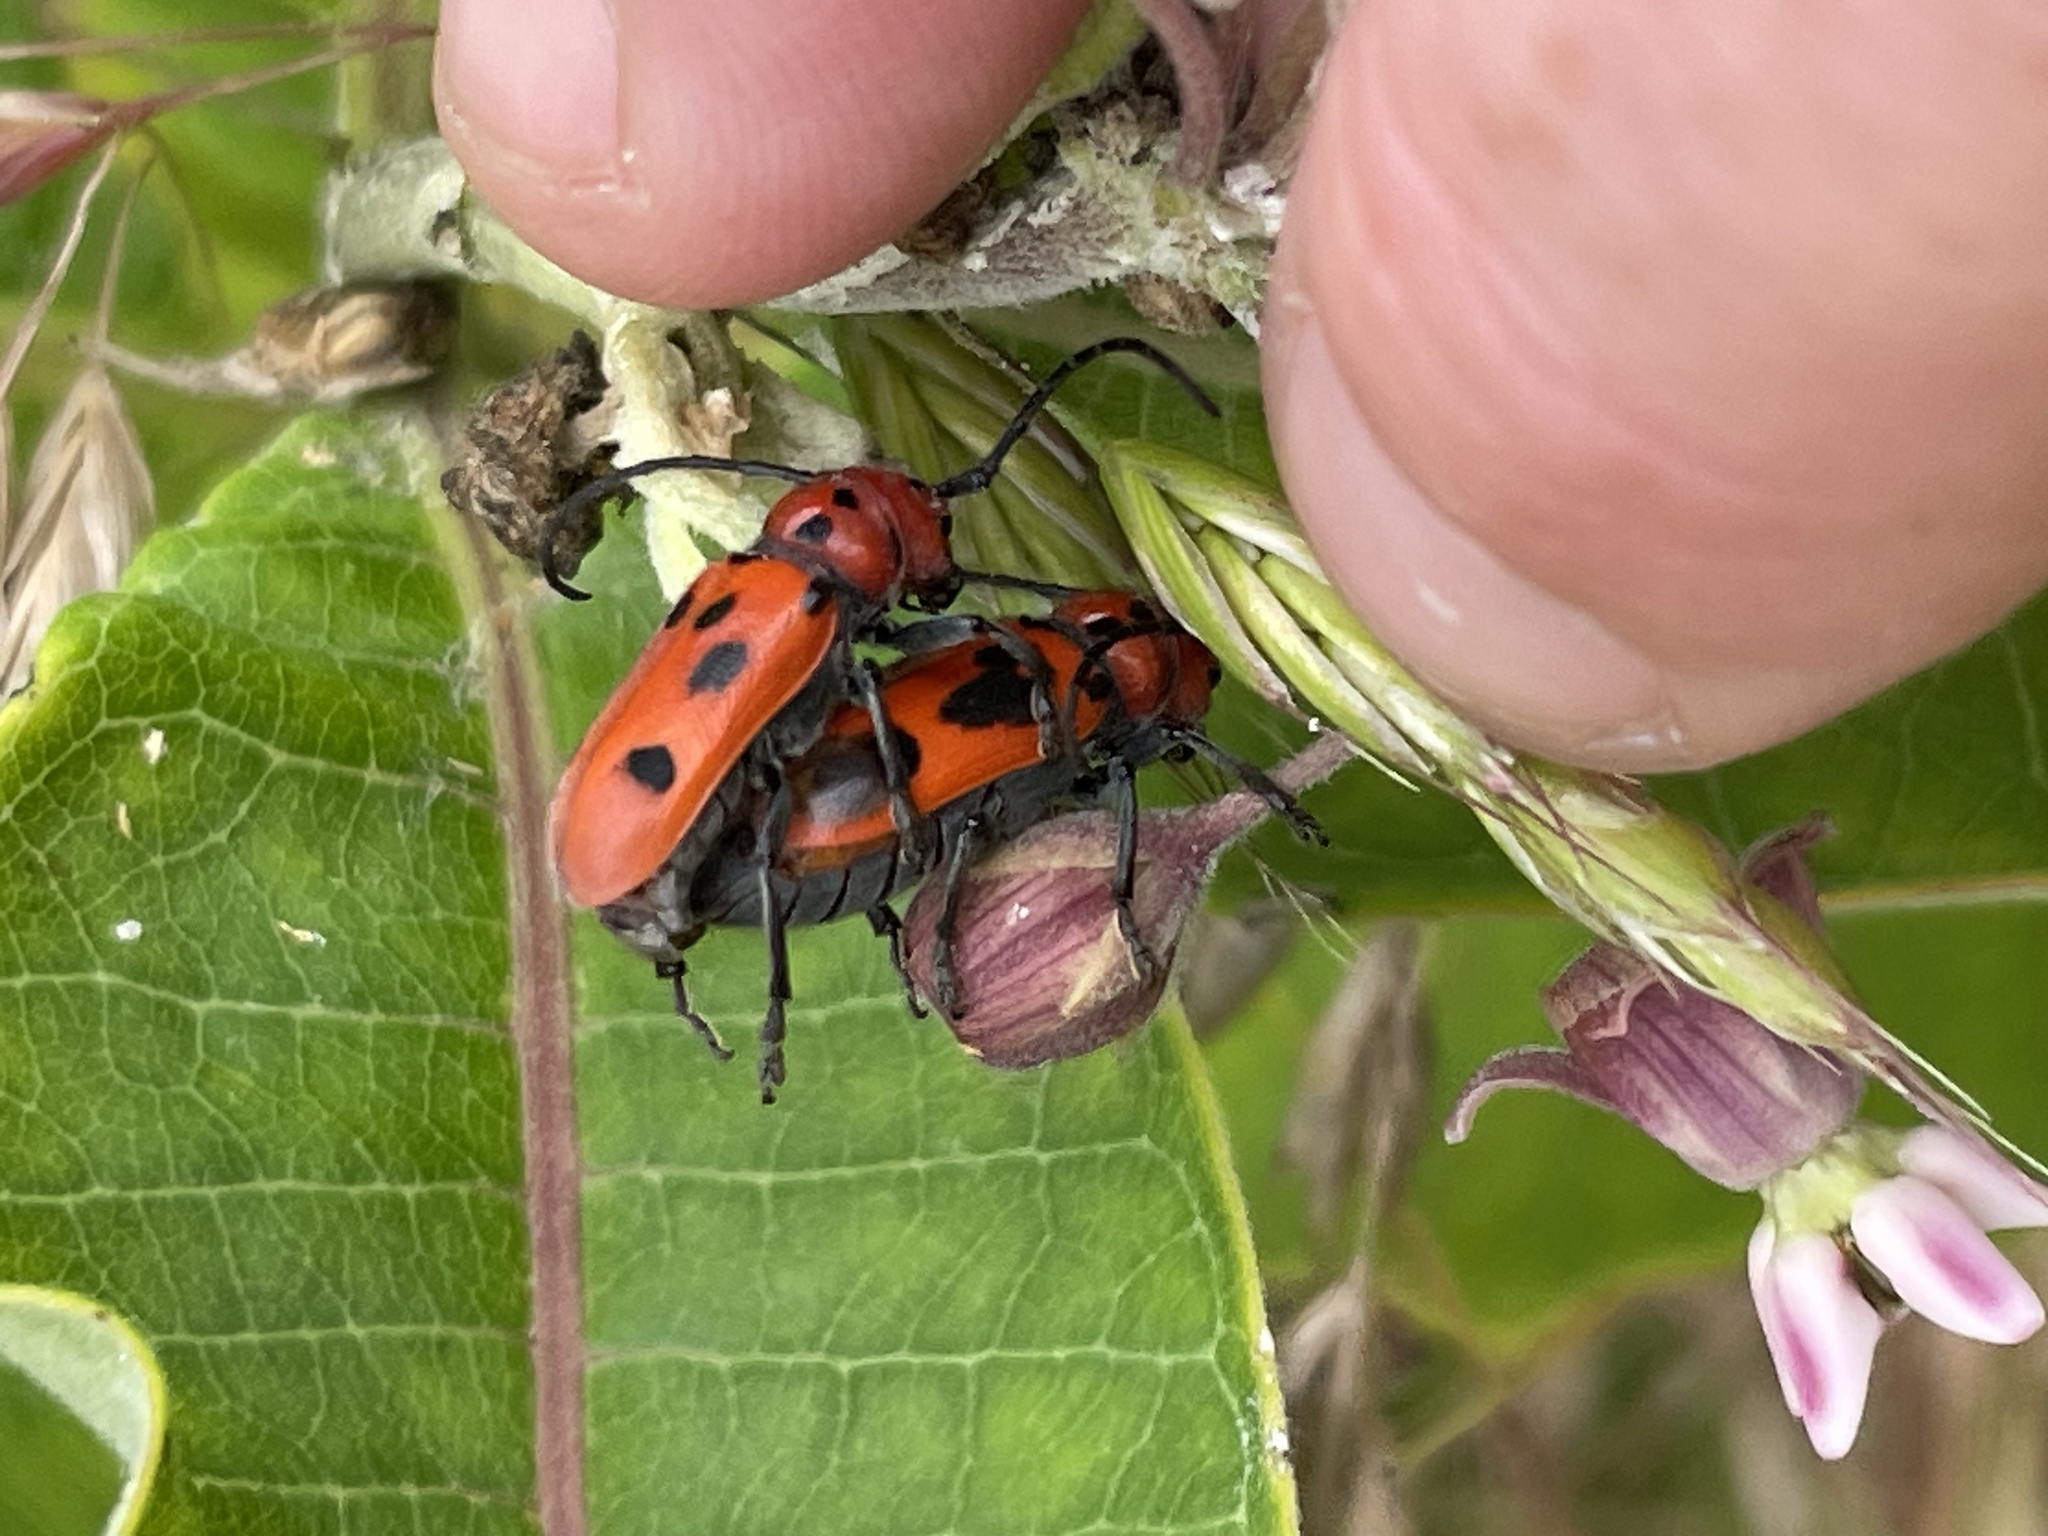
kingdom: Animalia
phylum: Arthropoda
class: Insecta
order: Coleoptera
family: Cerambycidae
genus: Tetraopes
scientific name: Tetraopes tetrophthalmus
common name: Red milkweed beetle
